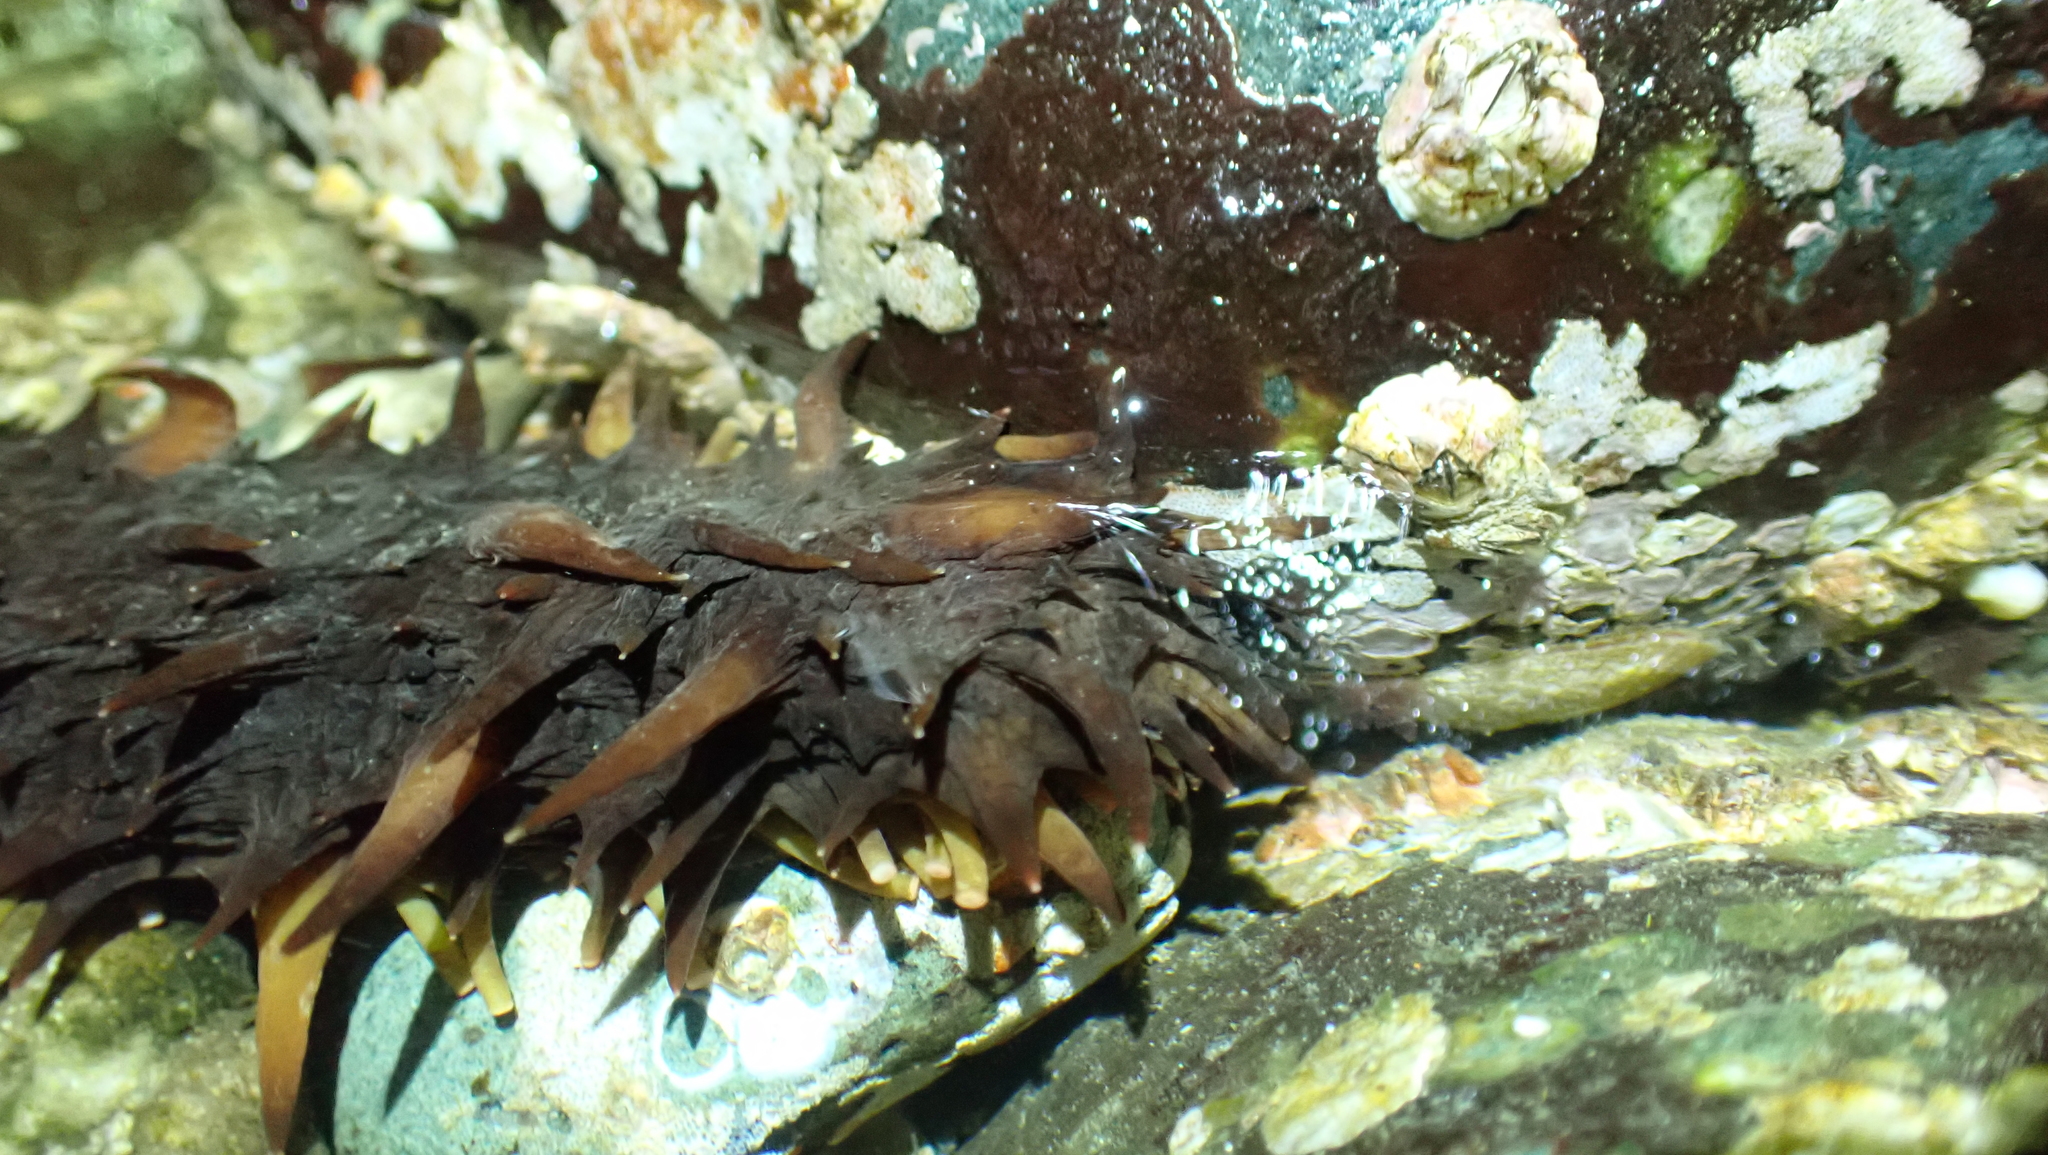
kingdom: Animalia
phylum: Echinodermata
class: Holothuroidea
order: Synallactida
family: Stichopodidae
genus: Apostichopus
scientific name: Apostichopus californicus
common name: California sea cucumber
